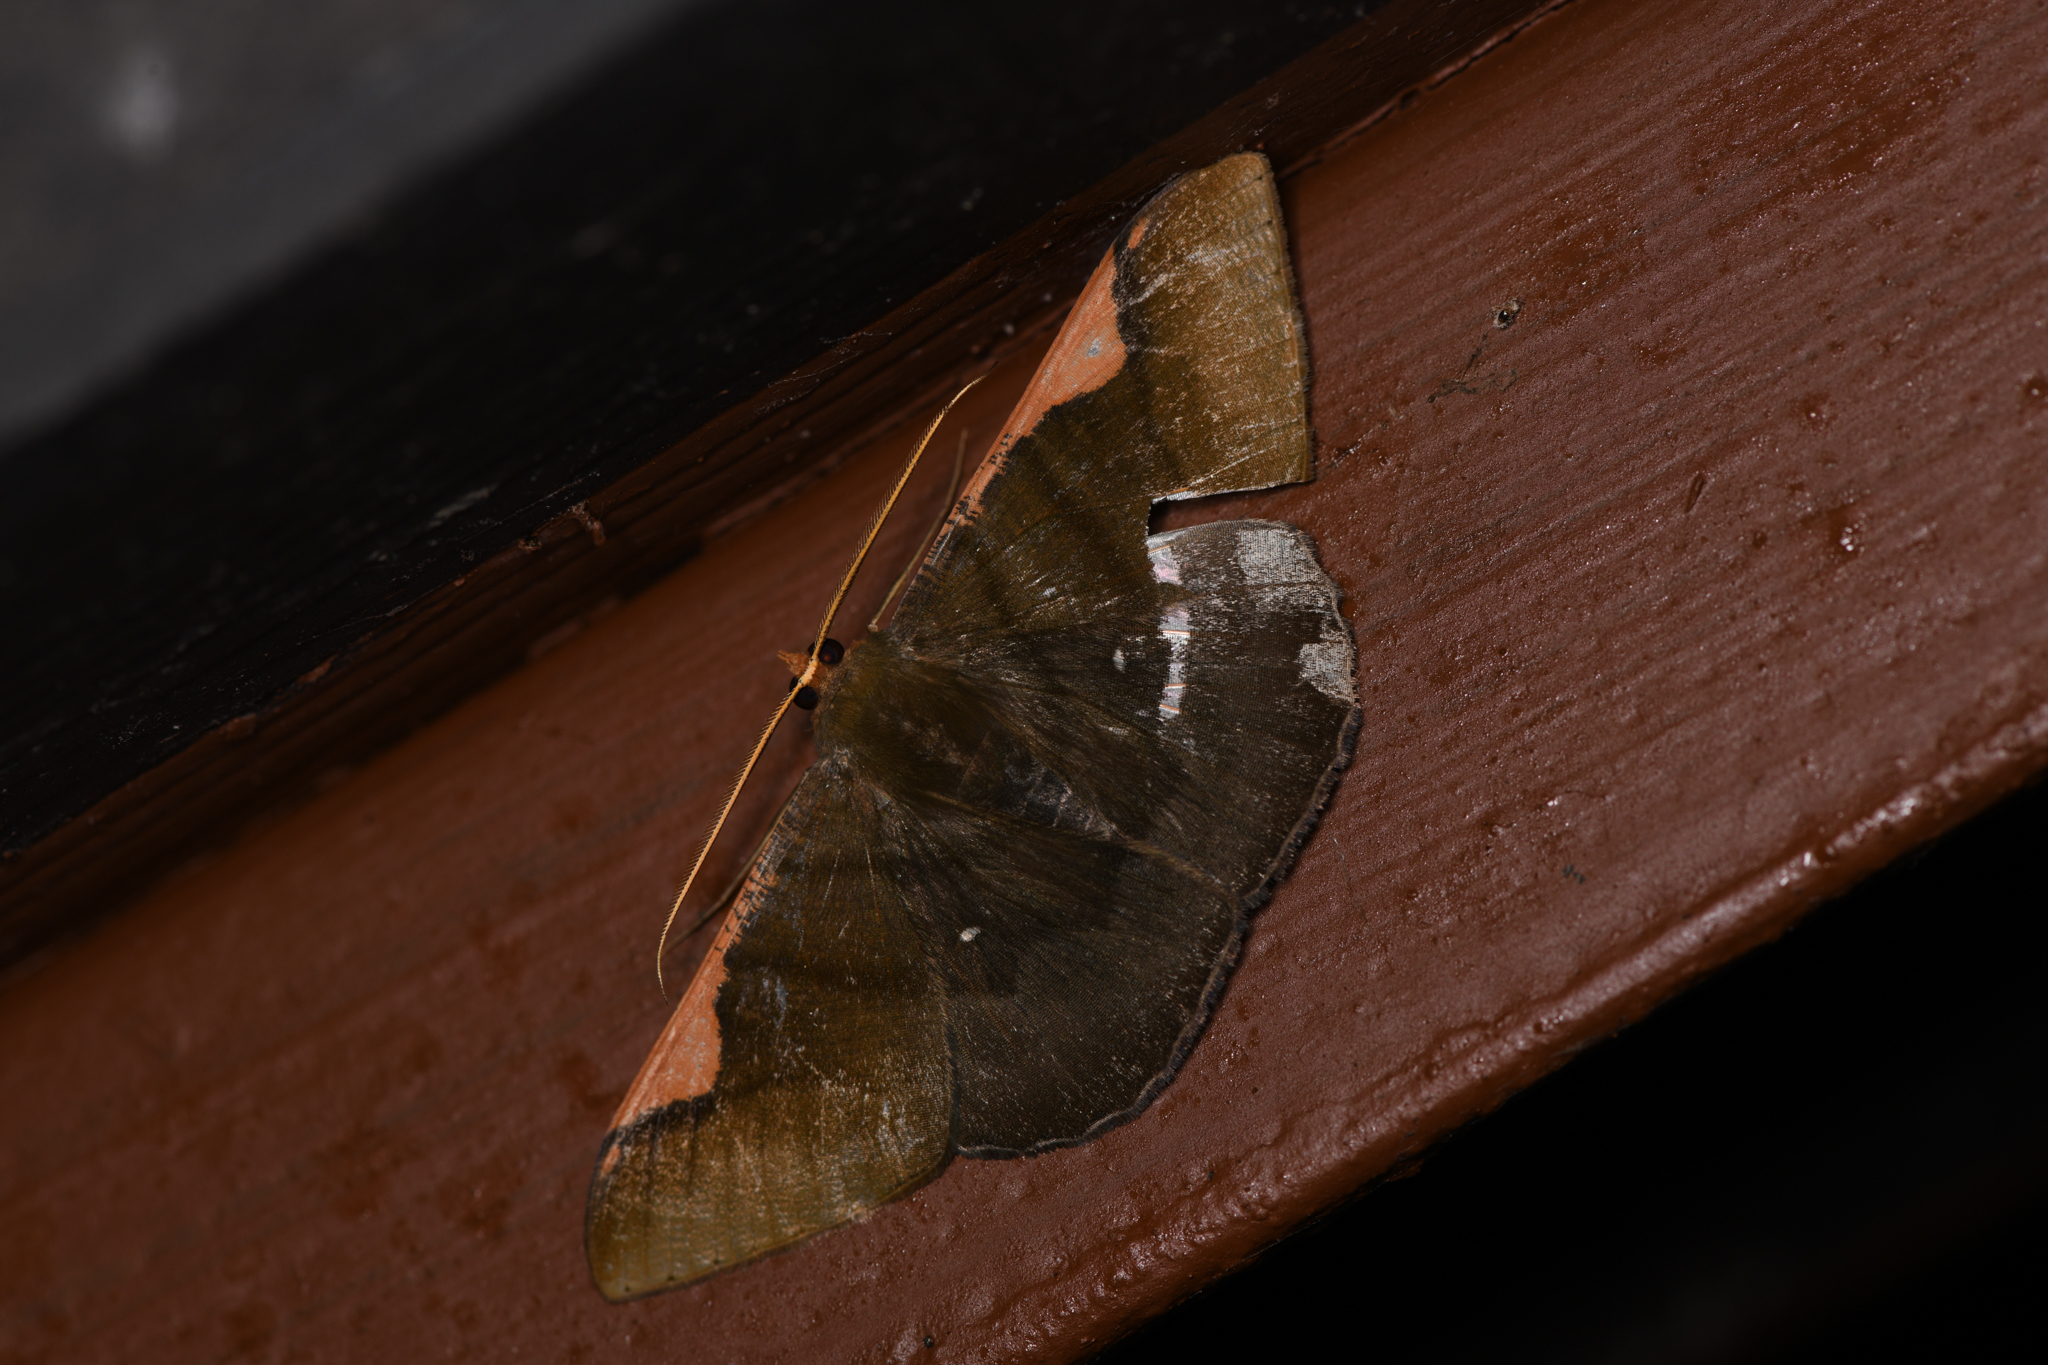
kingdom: Animalia
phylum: Arthropoda
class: Insecta
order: Lepidoptera
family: Geometridae
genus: Sphacelodes
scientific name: Sphacelodes vulneraria
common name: Looper moth
